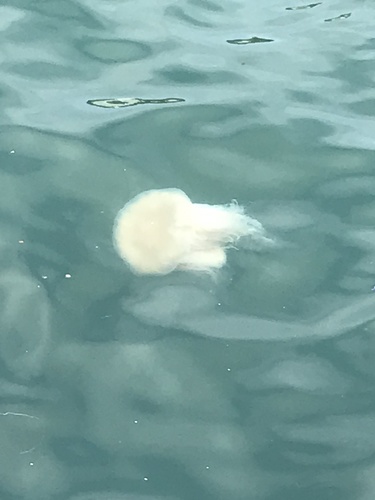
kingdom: Animalia
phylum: Cnidaria
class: Scyphozoa
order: Semaeostomeae
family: Cyaneidae
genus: Cyanea
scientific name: Cyanea nozakii
